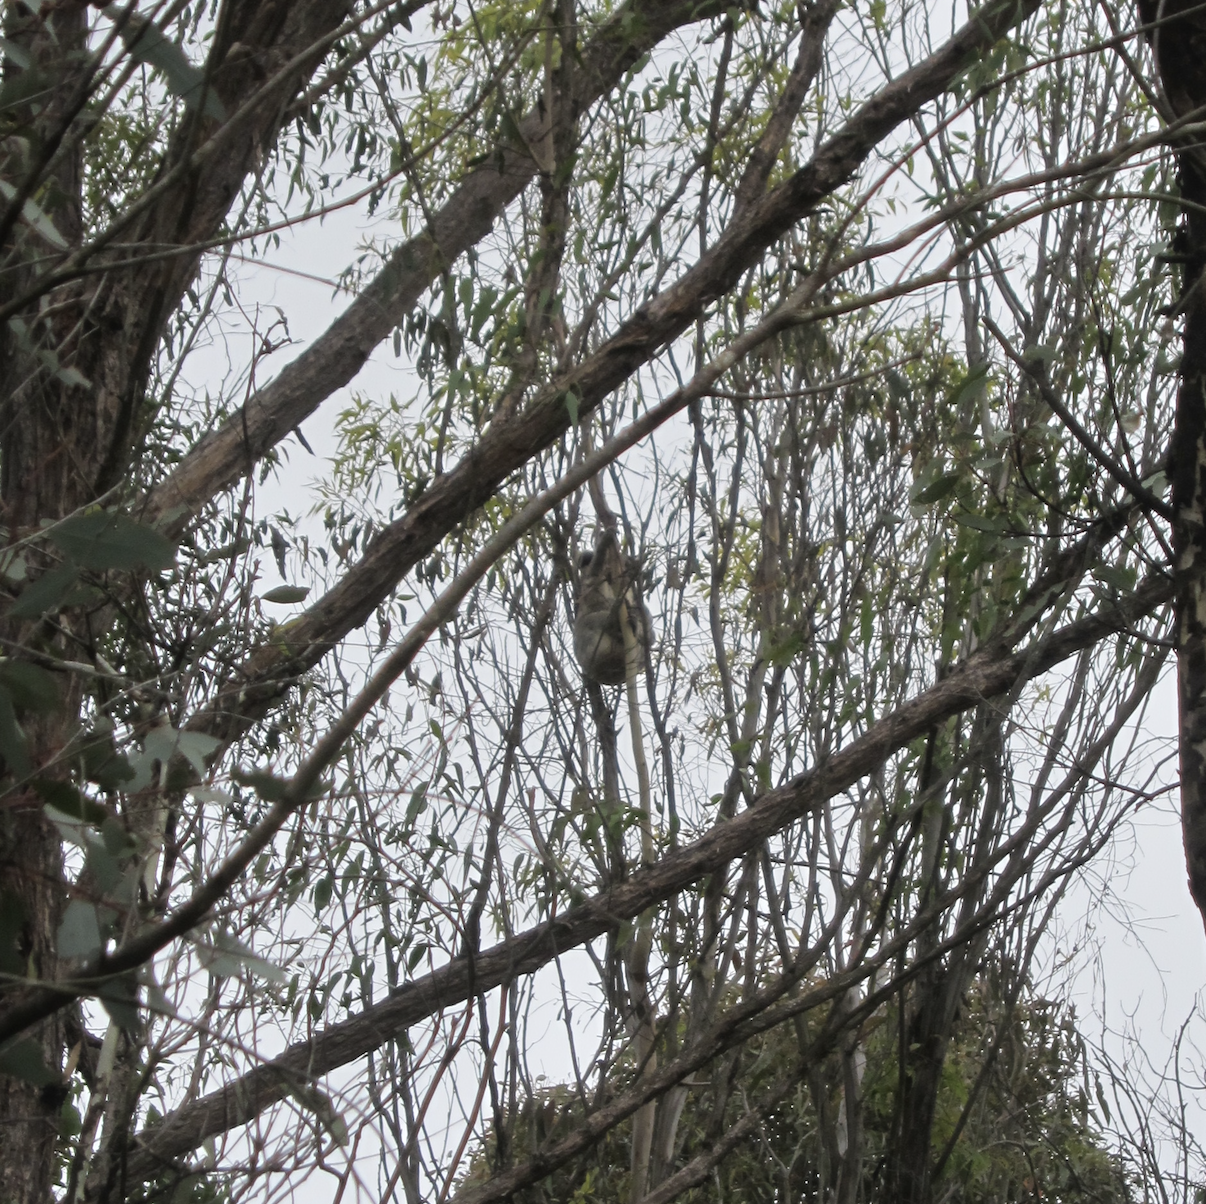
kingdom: Animalia
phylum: Chordata
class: Mammalia
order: Diprotodontia
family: Phascolarctidae
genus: Phascolarctos
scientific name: Phascolarctos cinereus
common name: Koala
